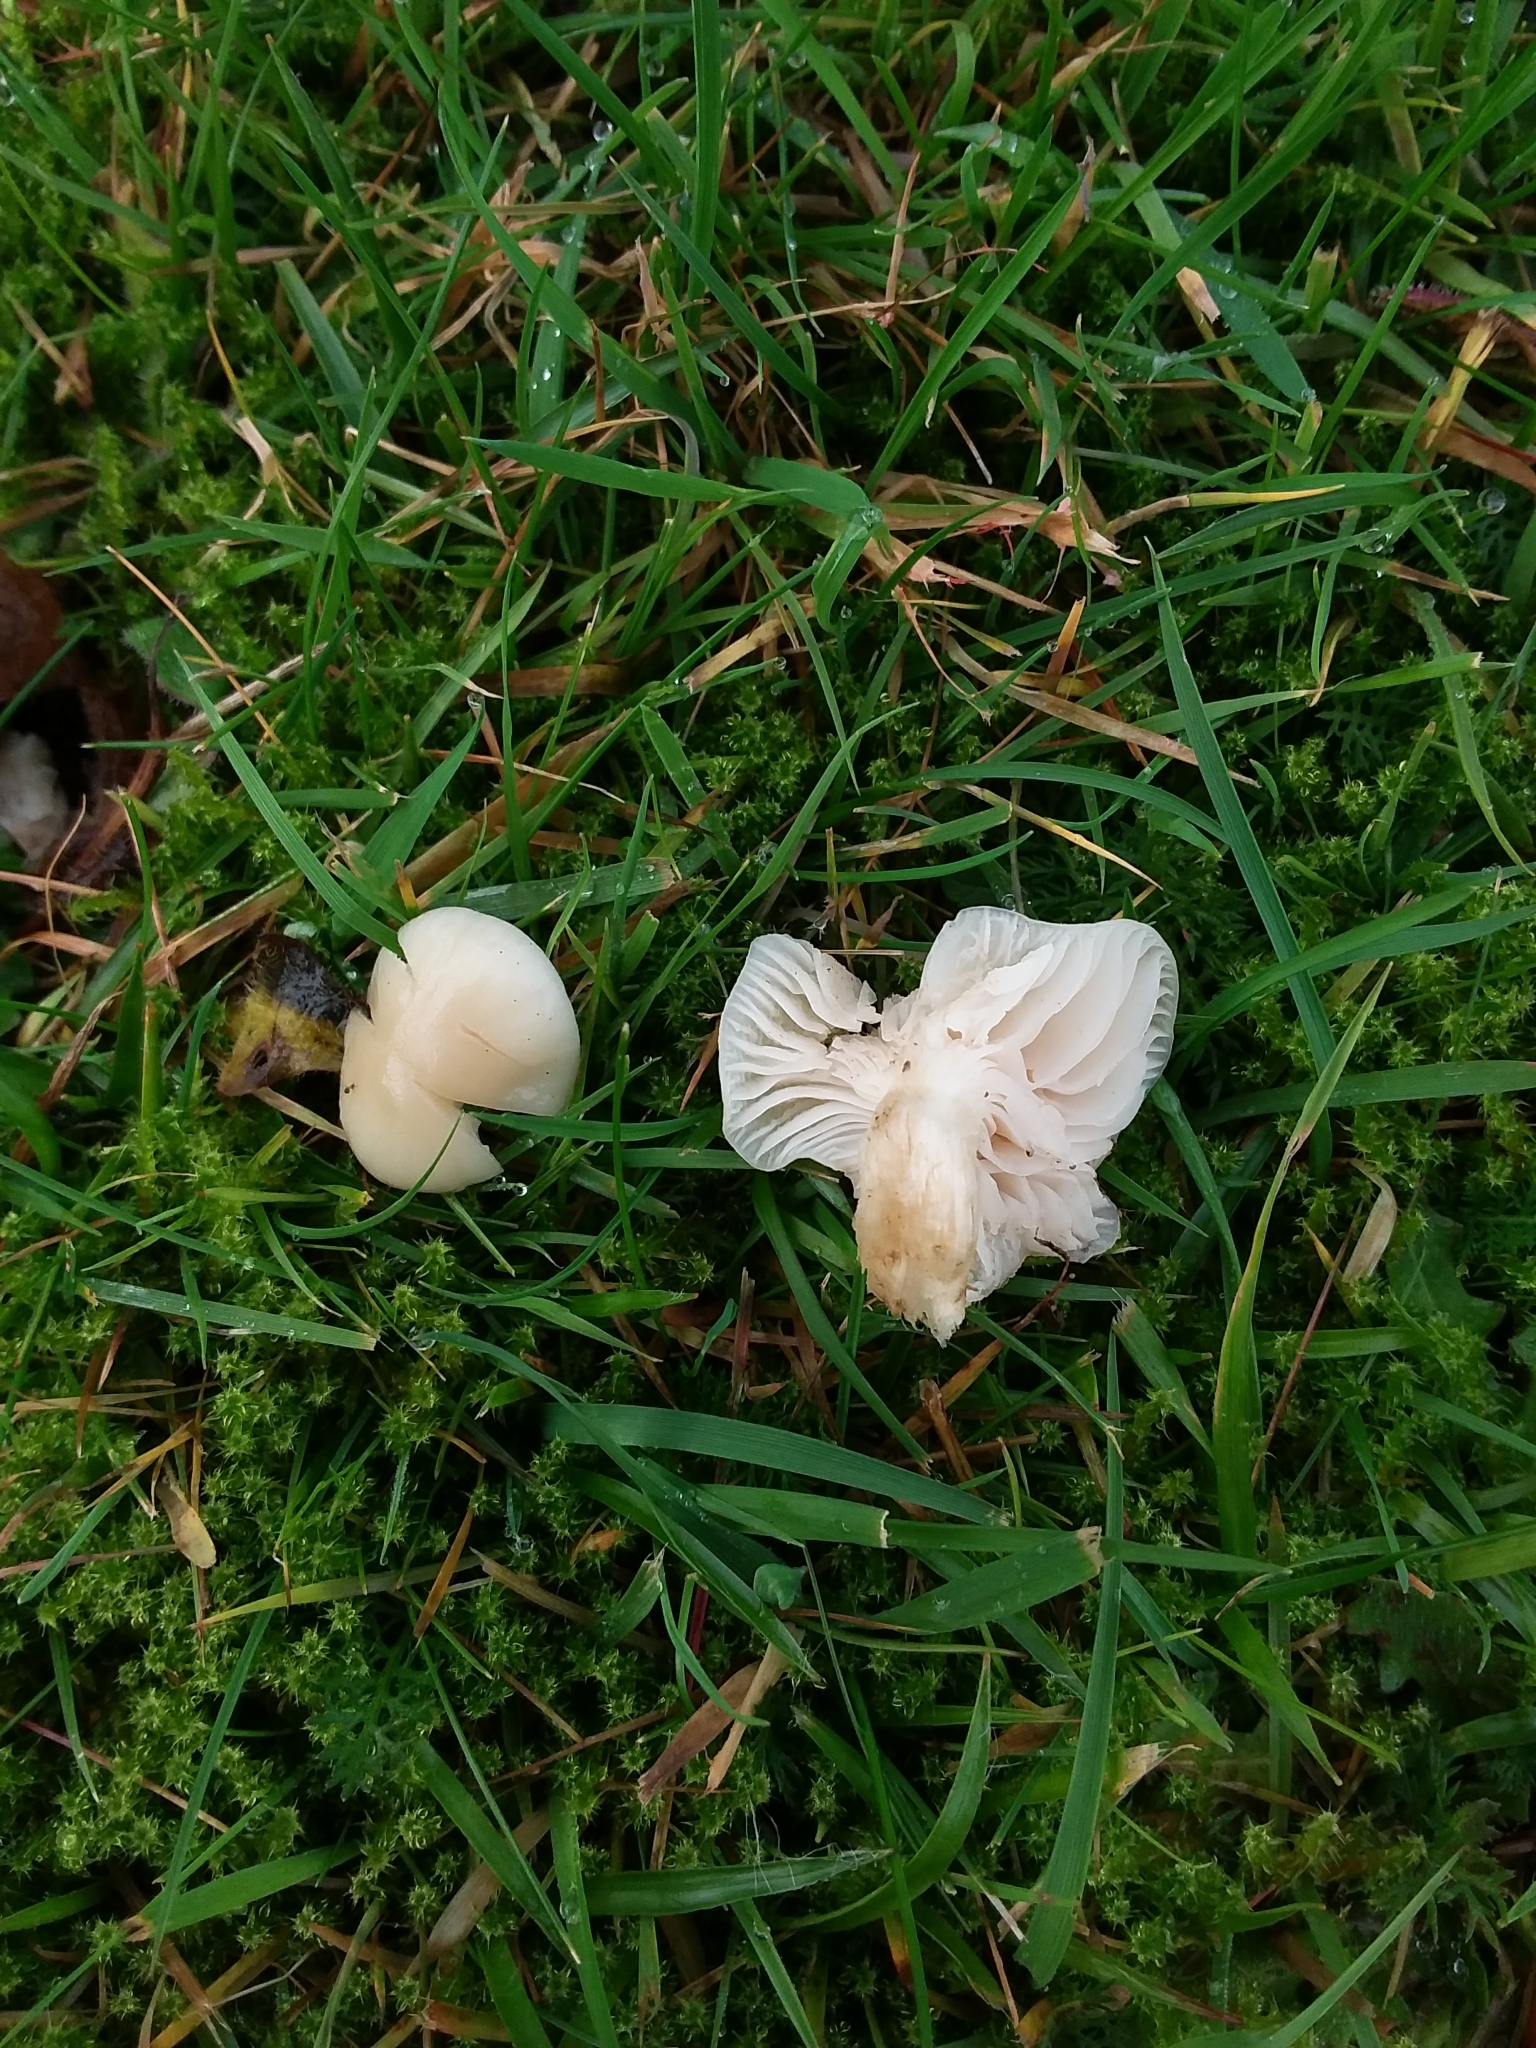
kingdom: Fungi
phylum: Basidiomycota
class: Agaricomycetes
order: Agaricales
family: Hygrophoraceae
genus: Cuphophyllus
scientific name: Cuphophyllus virgineus
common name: Snowy waxcap
